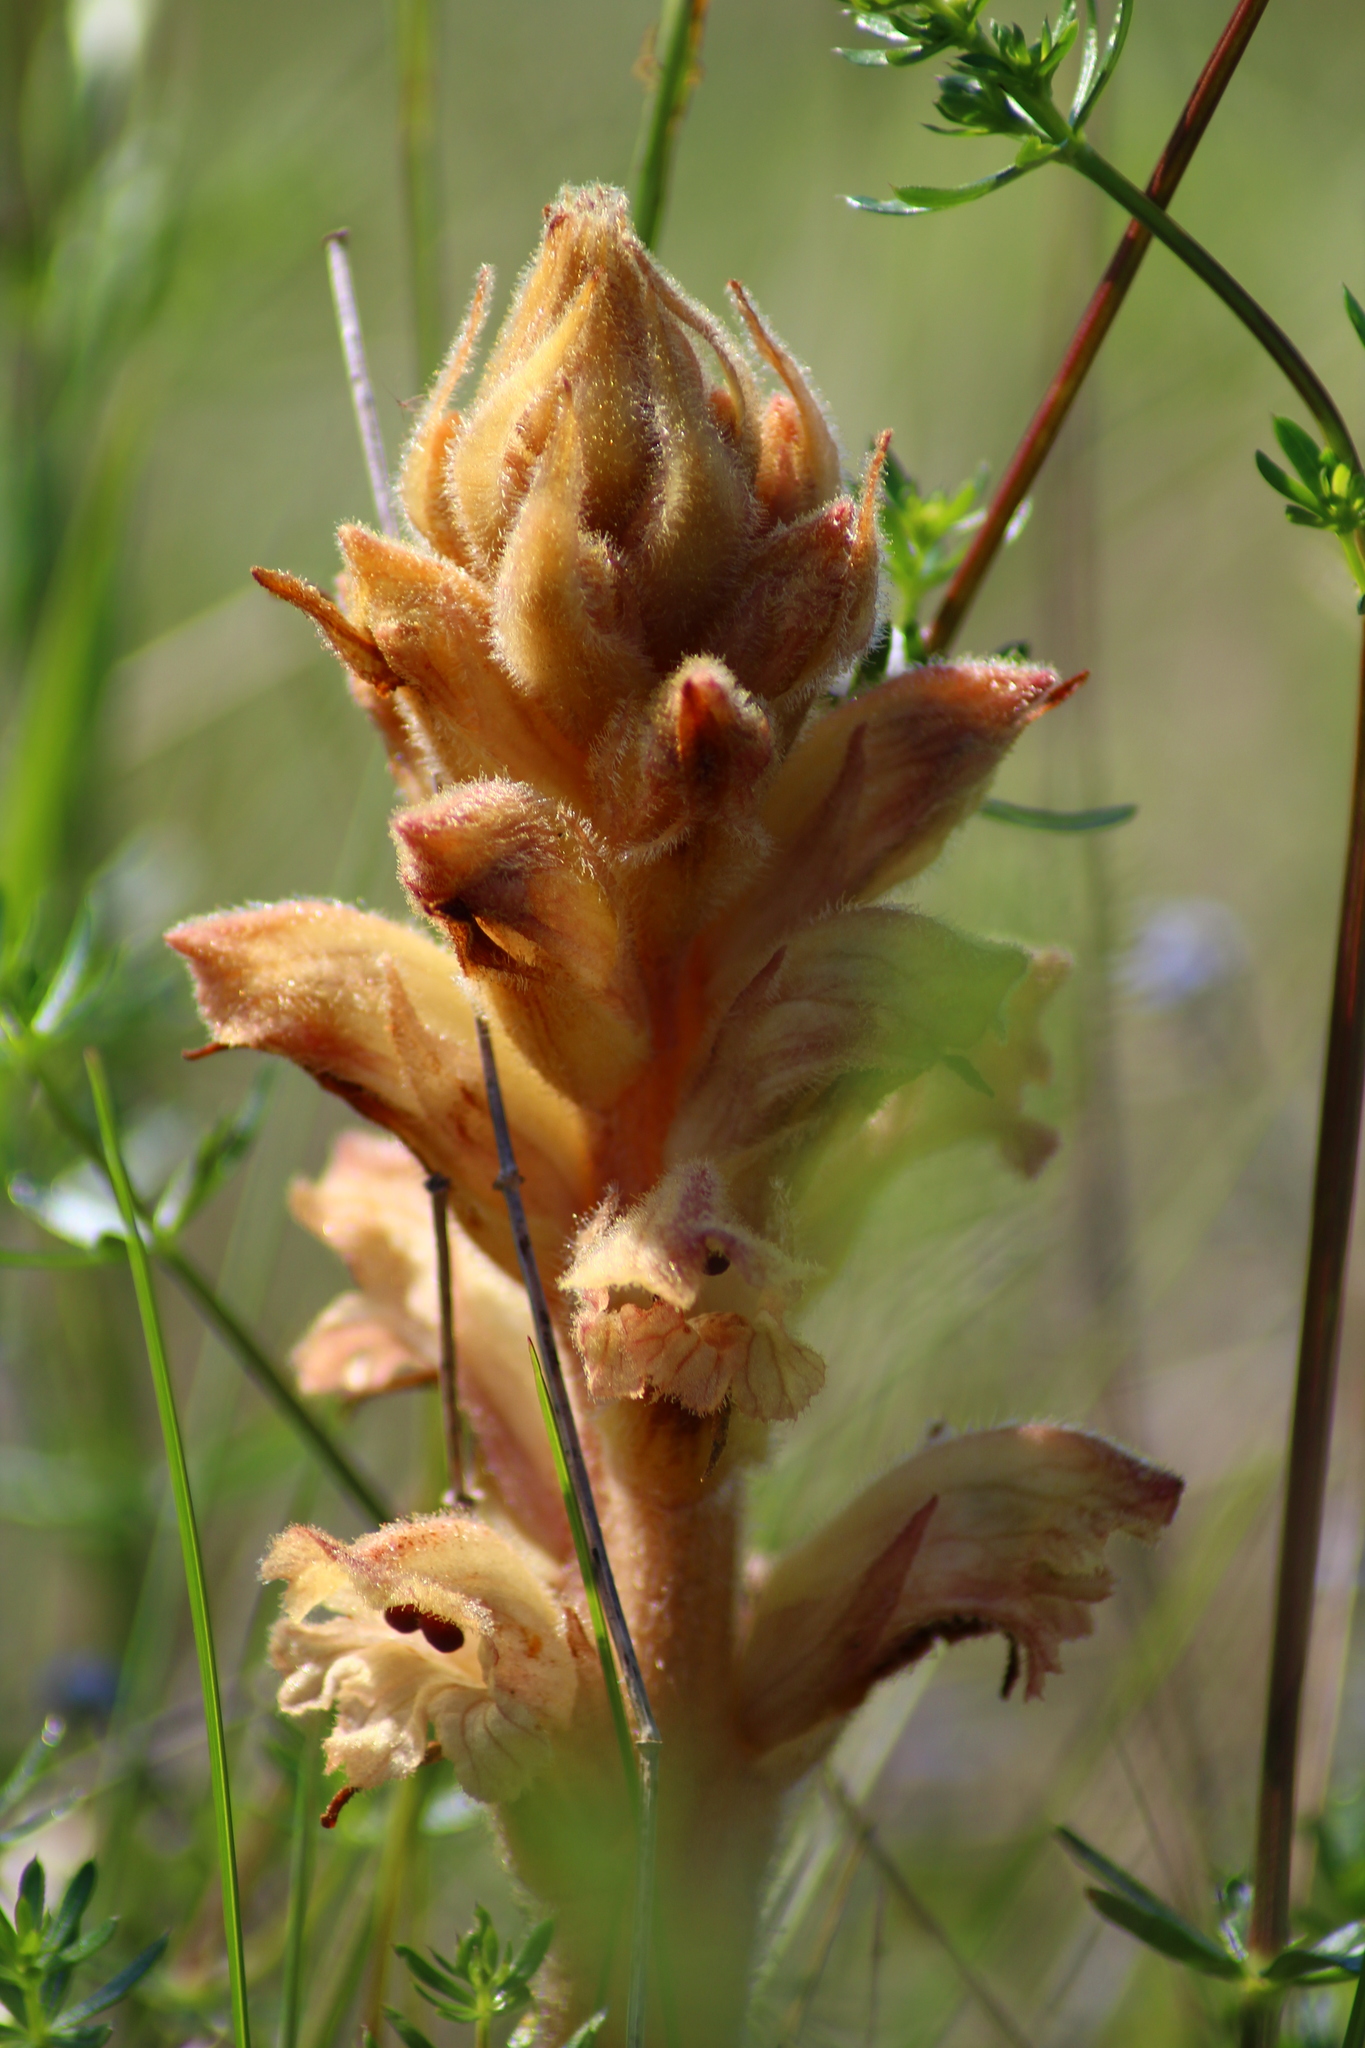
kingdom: Plantae
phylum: Tracheophyta
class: Magnoliopsida
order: Lamiales
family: Orobanchaceae
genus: Orobanche
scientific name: Orobanche caryophyllacea
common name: Bedstraw broomrape
